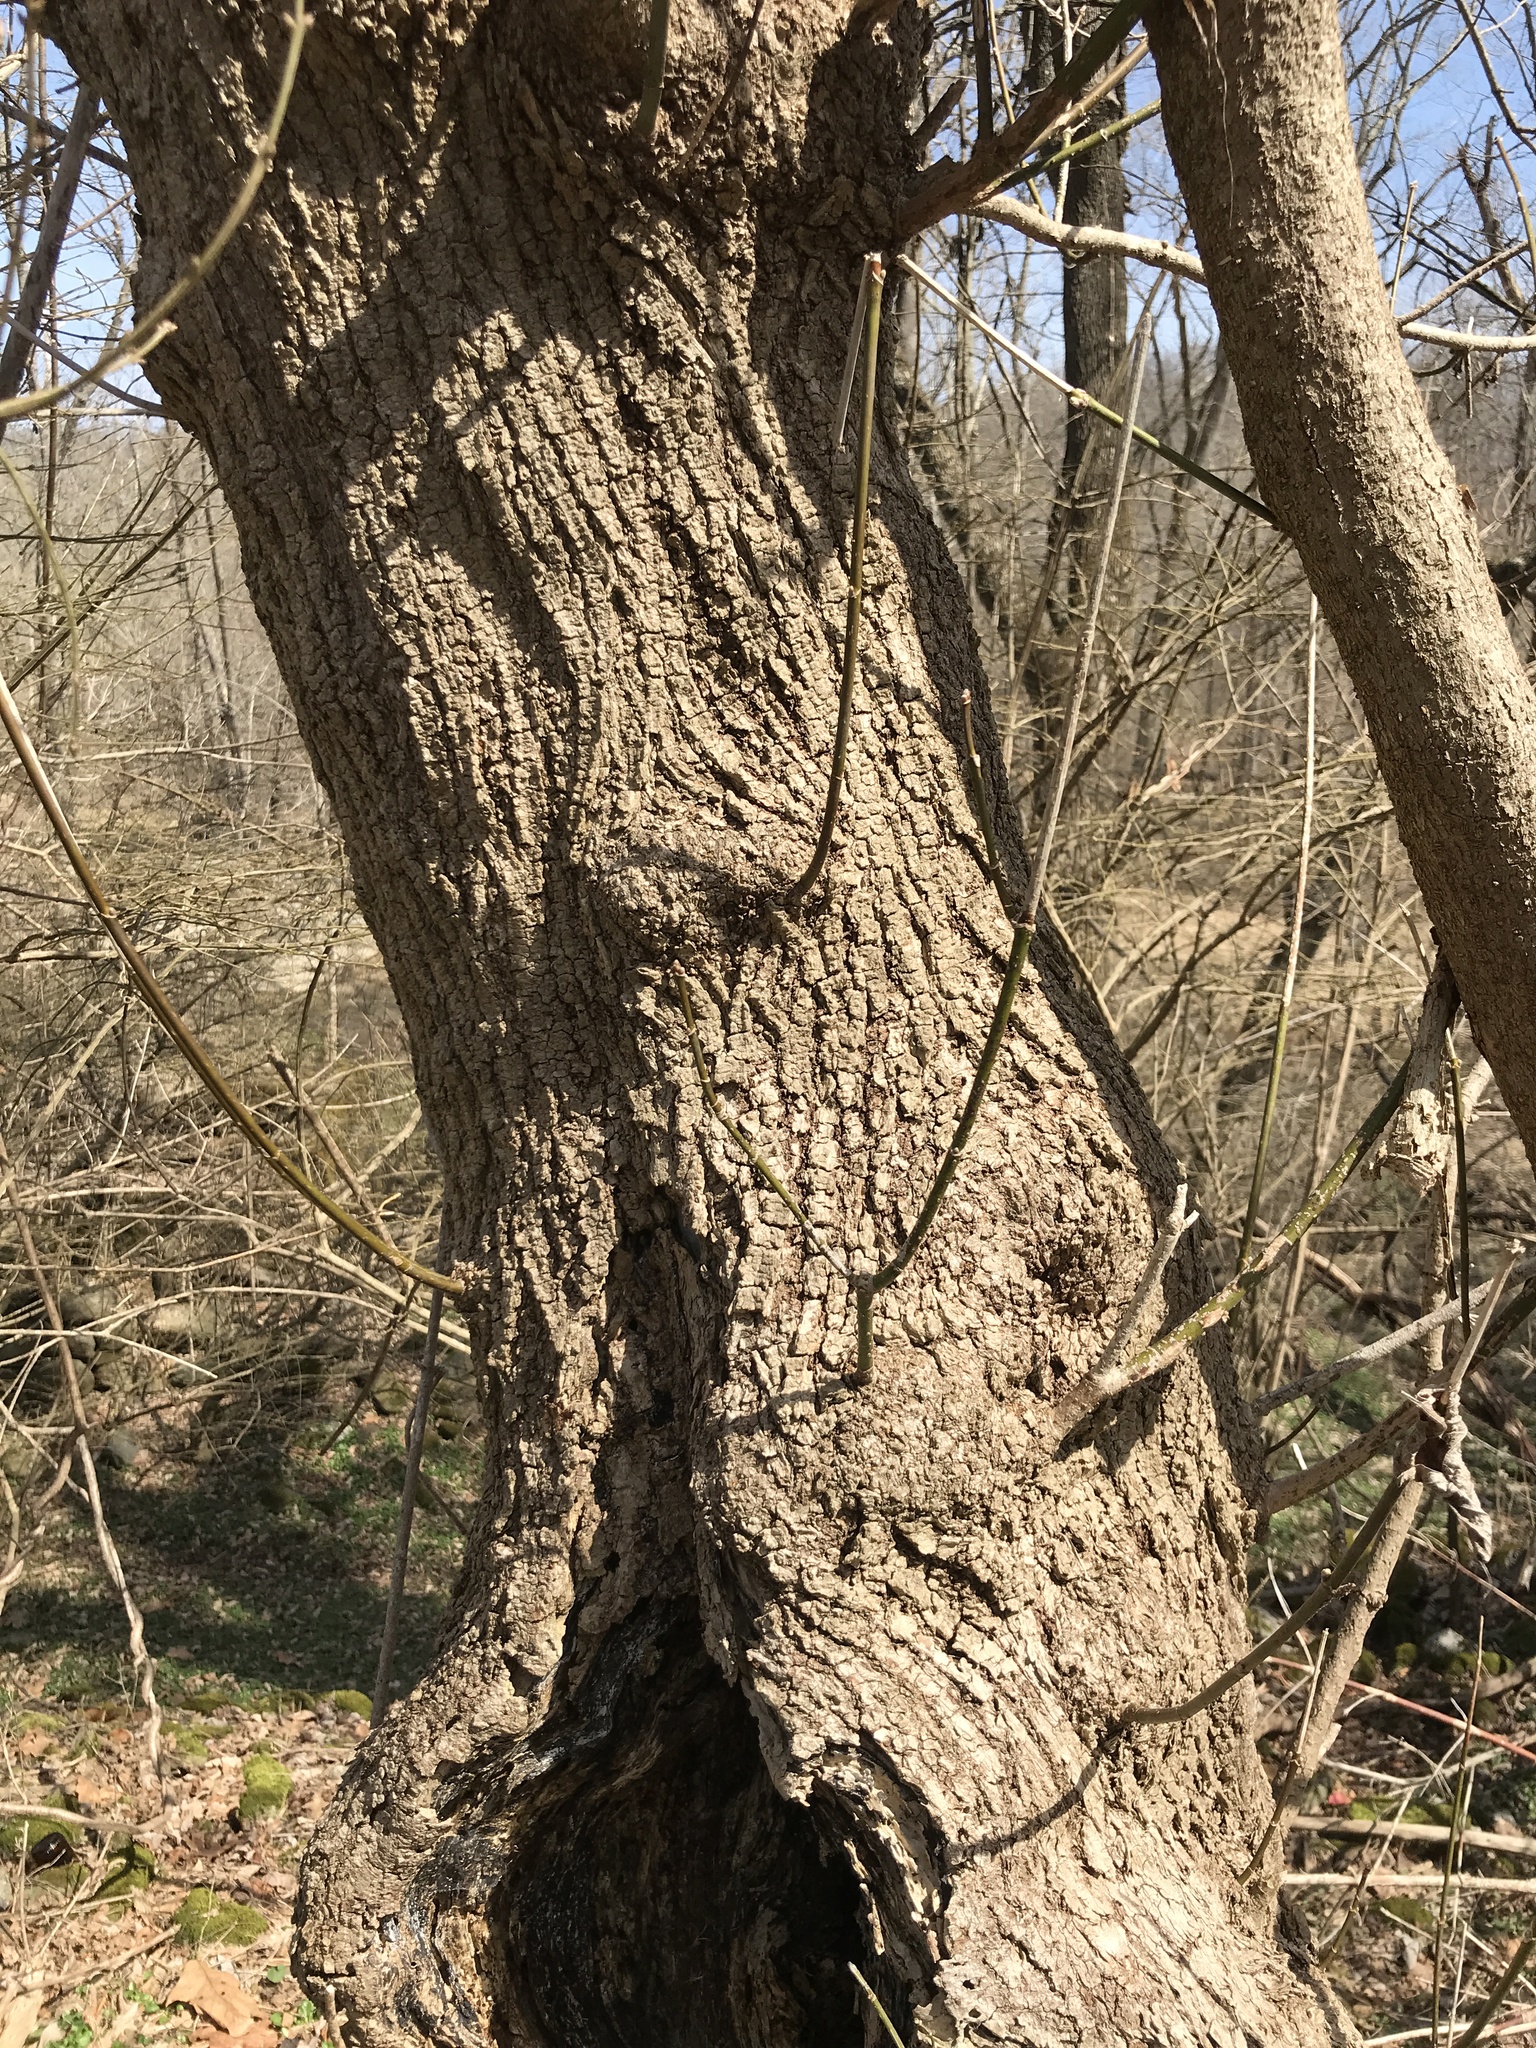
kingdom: Plantae
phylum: Tracheophyta
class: Magnoliopsida
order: Sapindales
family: Sapindaceae
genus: Acer
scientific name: Acer negundo
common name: Ashleaf maple
